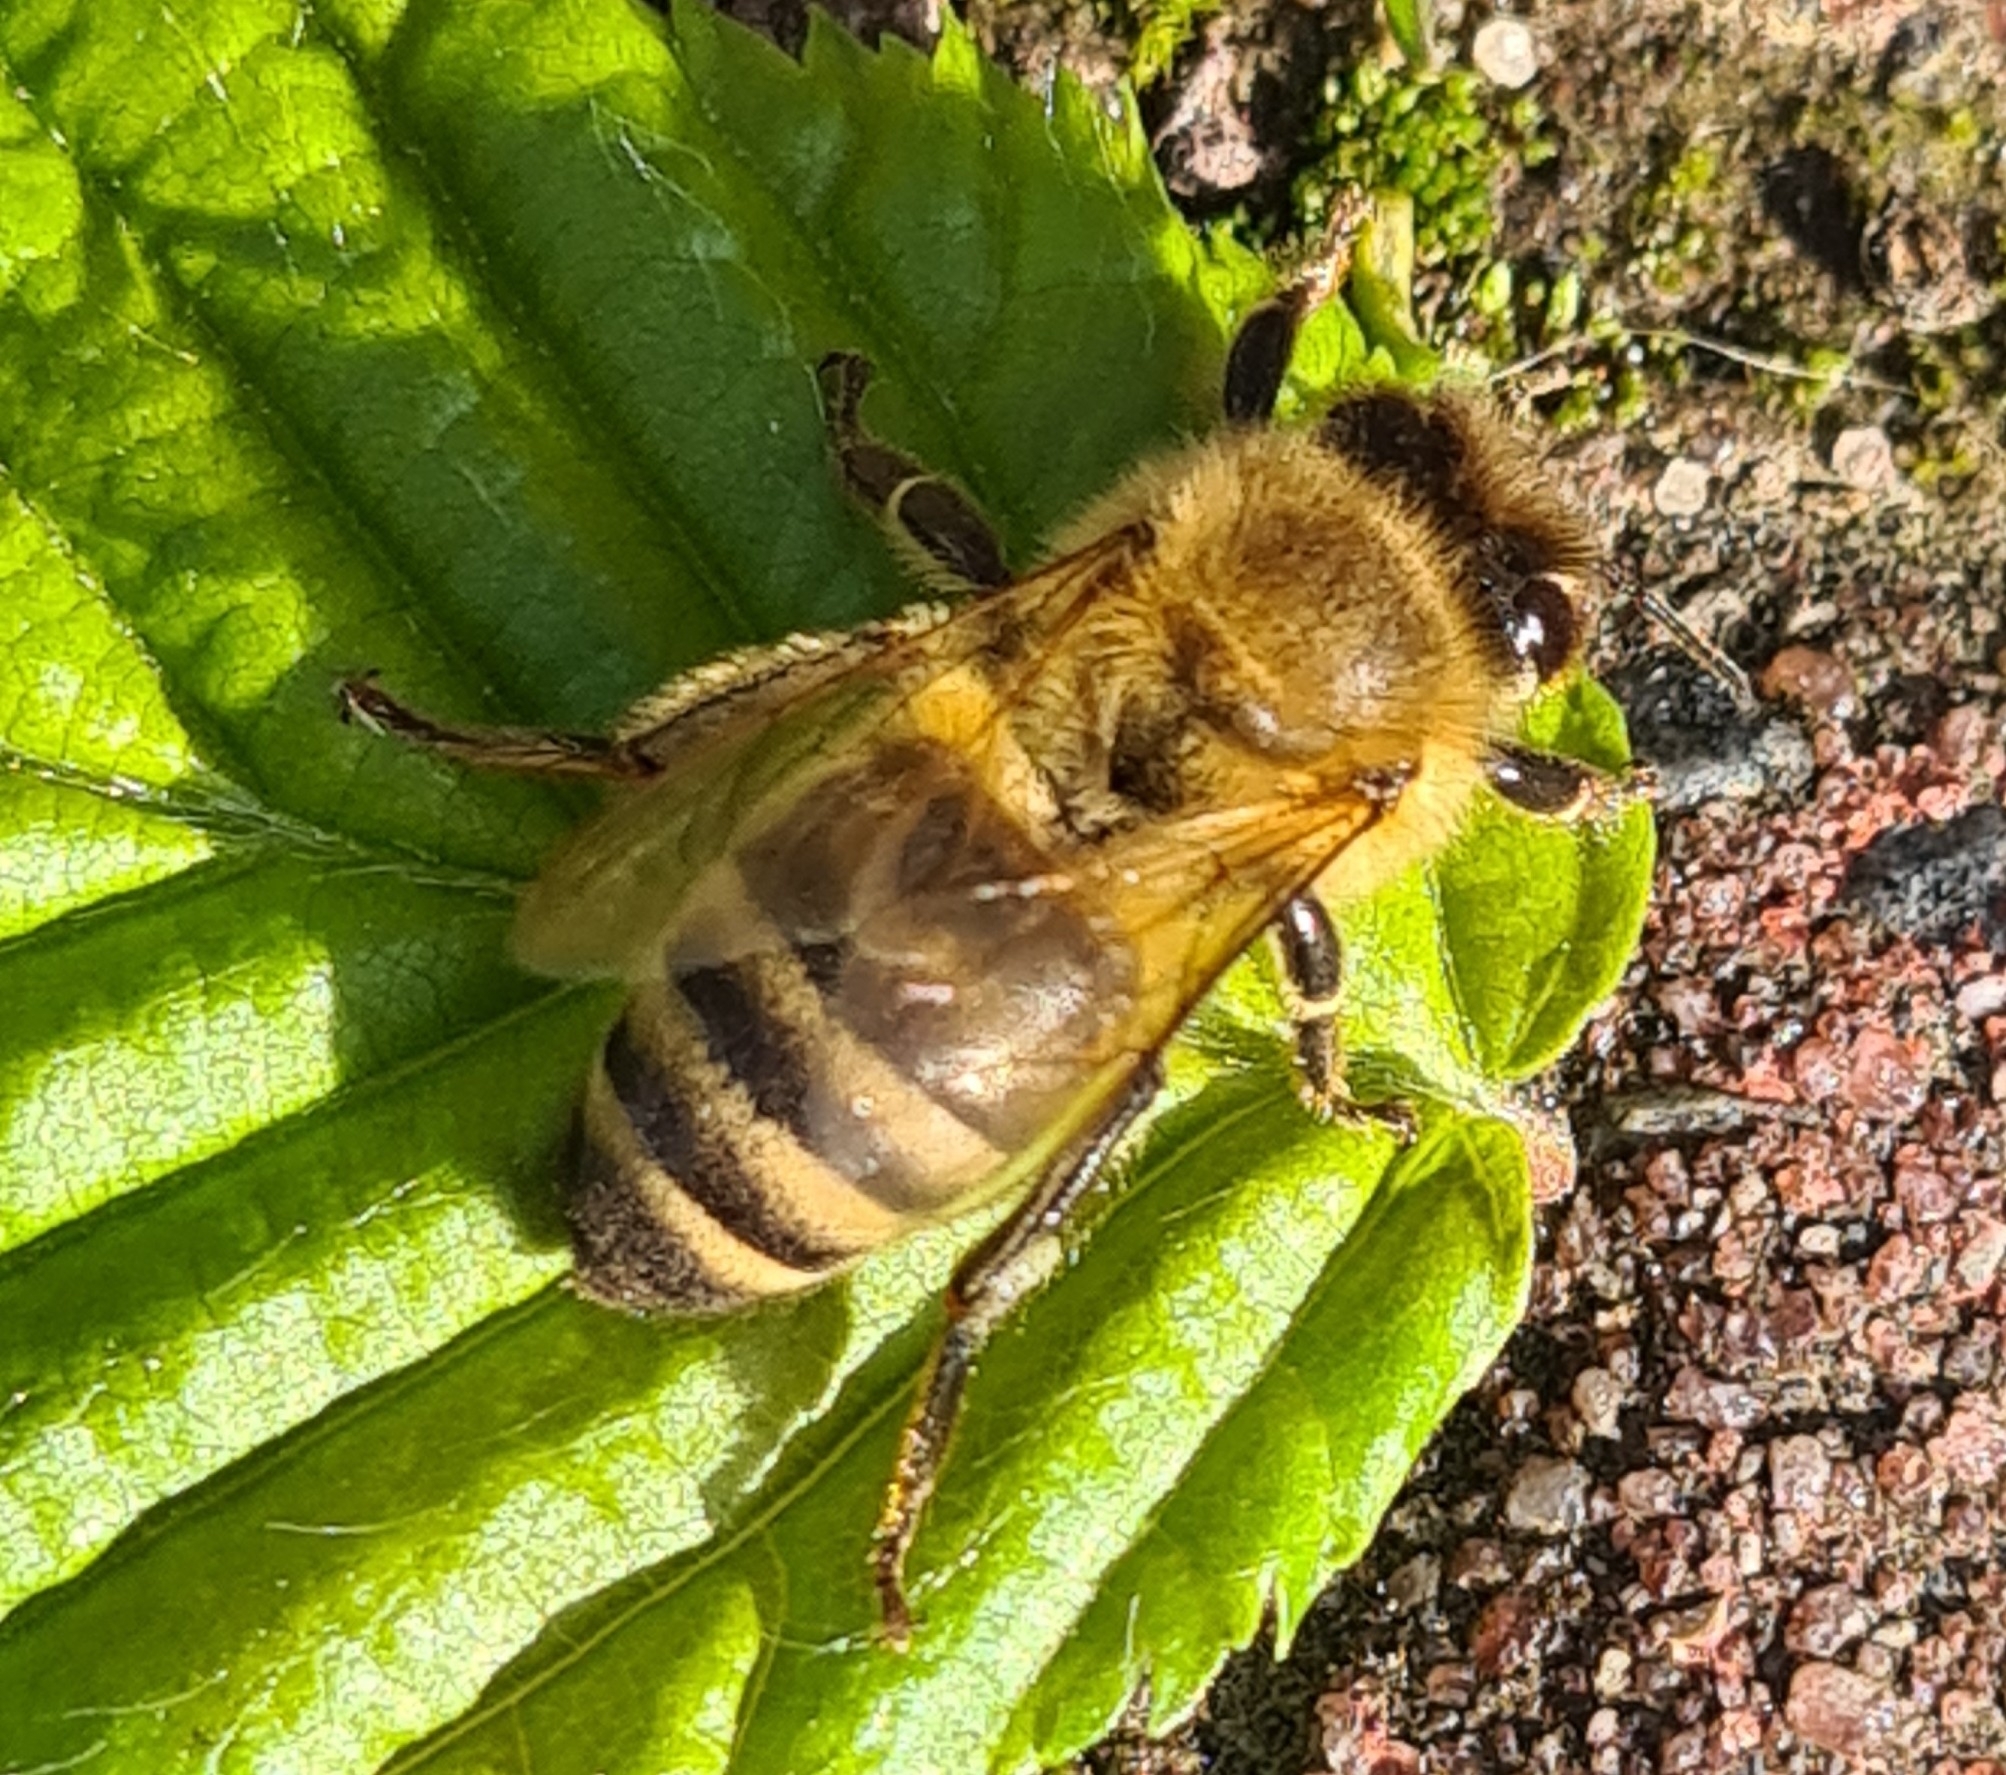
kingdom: Animalia
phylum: Arthropoda
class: Insecta
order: Hymenoptera
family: Apidae
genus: Apis
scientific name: Apis mellifera
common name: Honey bee
